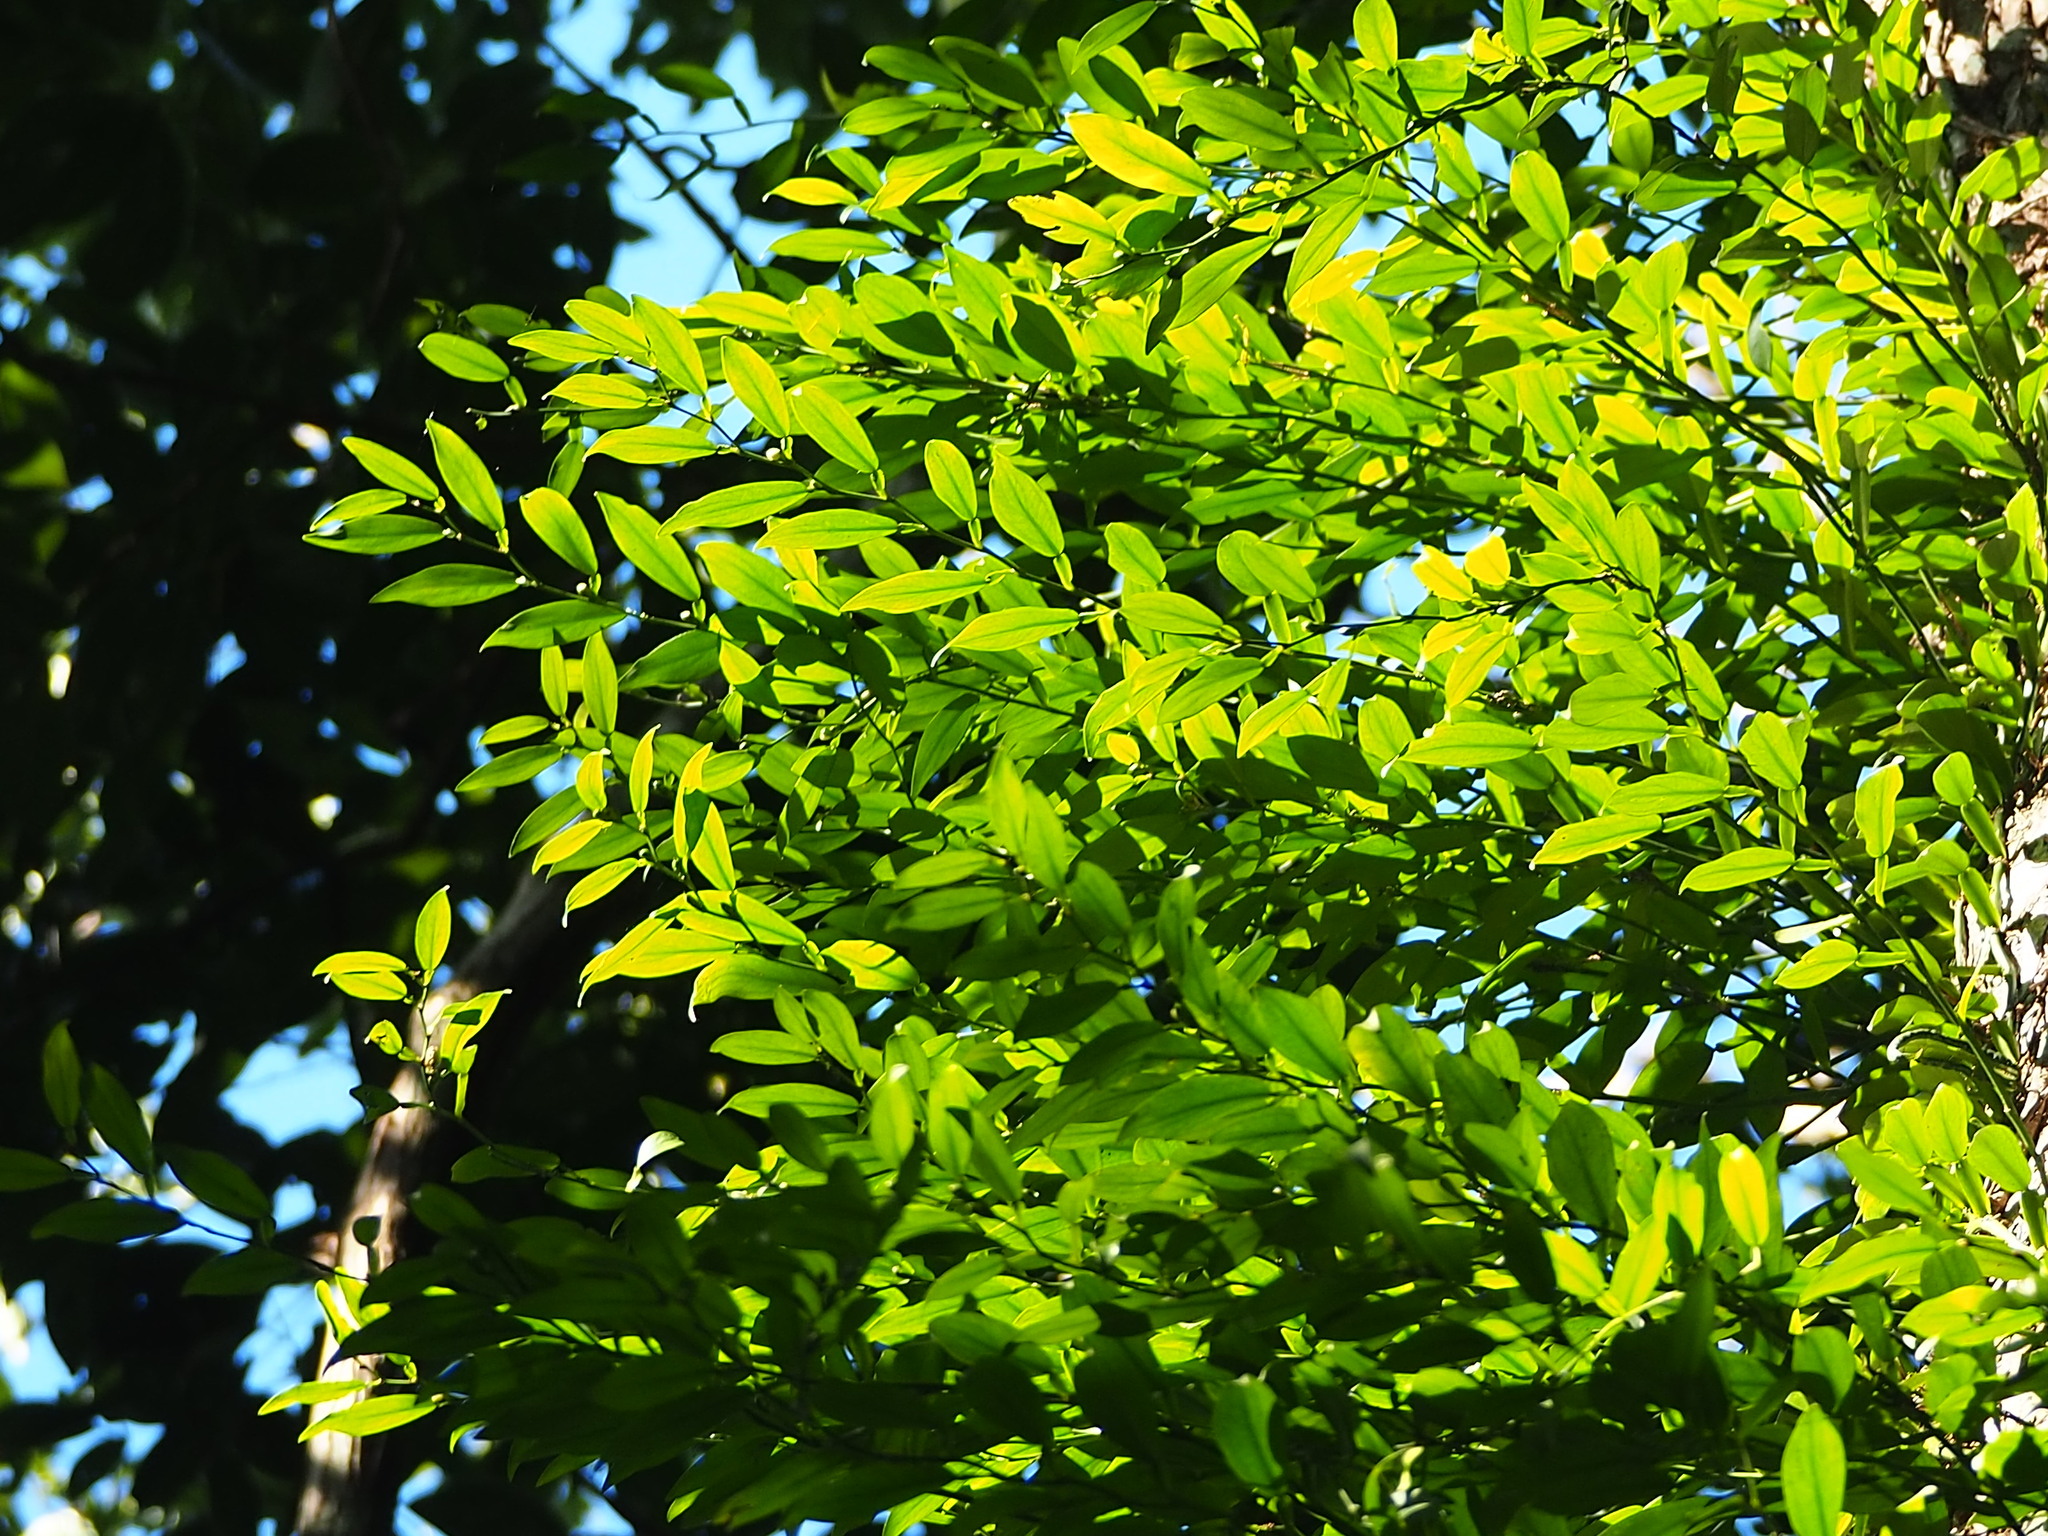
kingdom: Plantae
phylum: Tracheophyta
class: Liliopsida
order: Alismatales
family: Araceae
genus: Pothos
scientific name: Pothos chinensis
